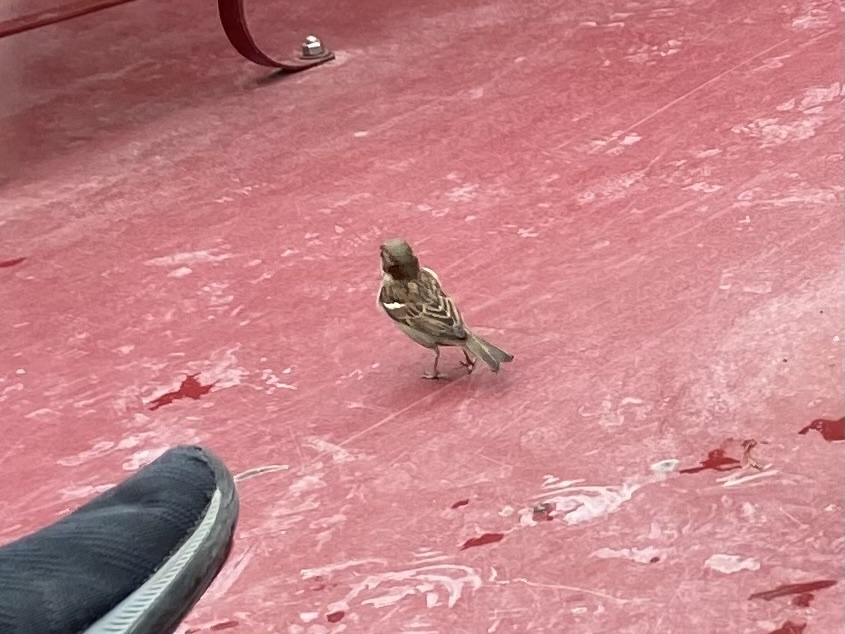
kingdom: Animalia
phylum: Chordata
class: Aves
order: Passeriformes
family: Passeridae
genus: Passer
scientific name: Passer domesticus
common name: House sparrow
